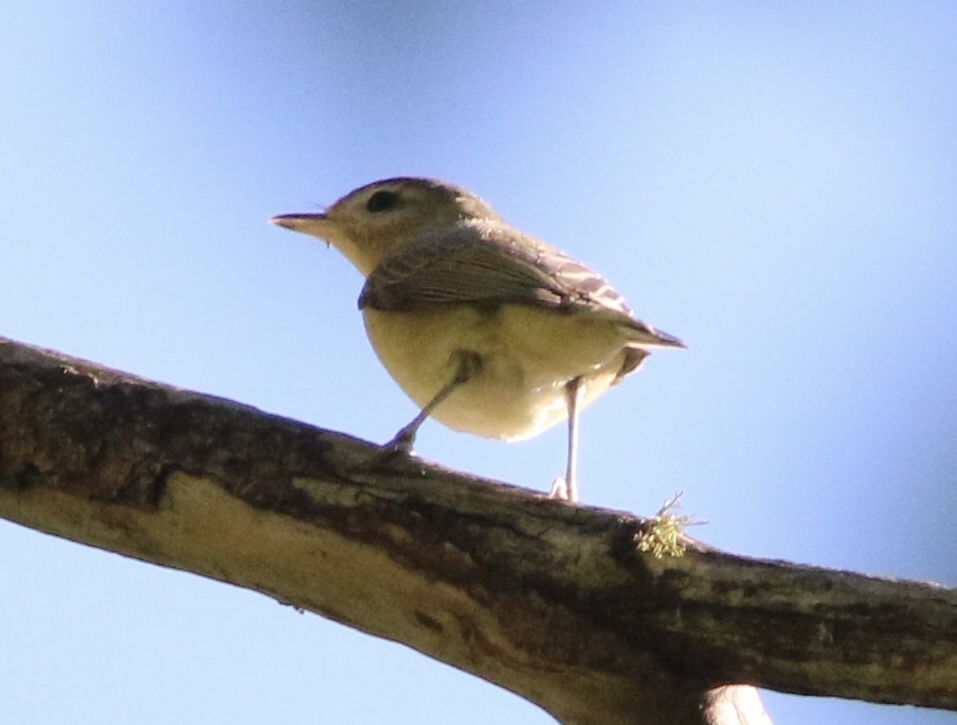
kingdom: Animalia
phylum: Chordata
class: Aves
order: Passeriformes
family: Vireonidae
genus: Vireo
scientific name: Vireo gilvus
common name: Warbling vireo
